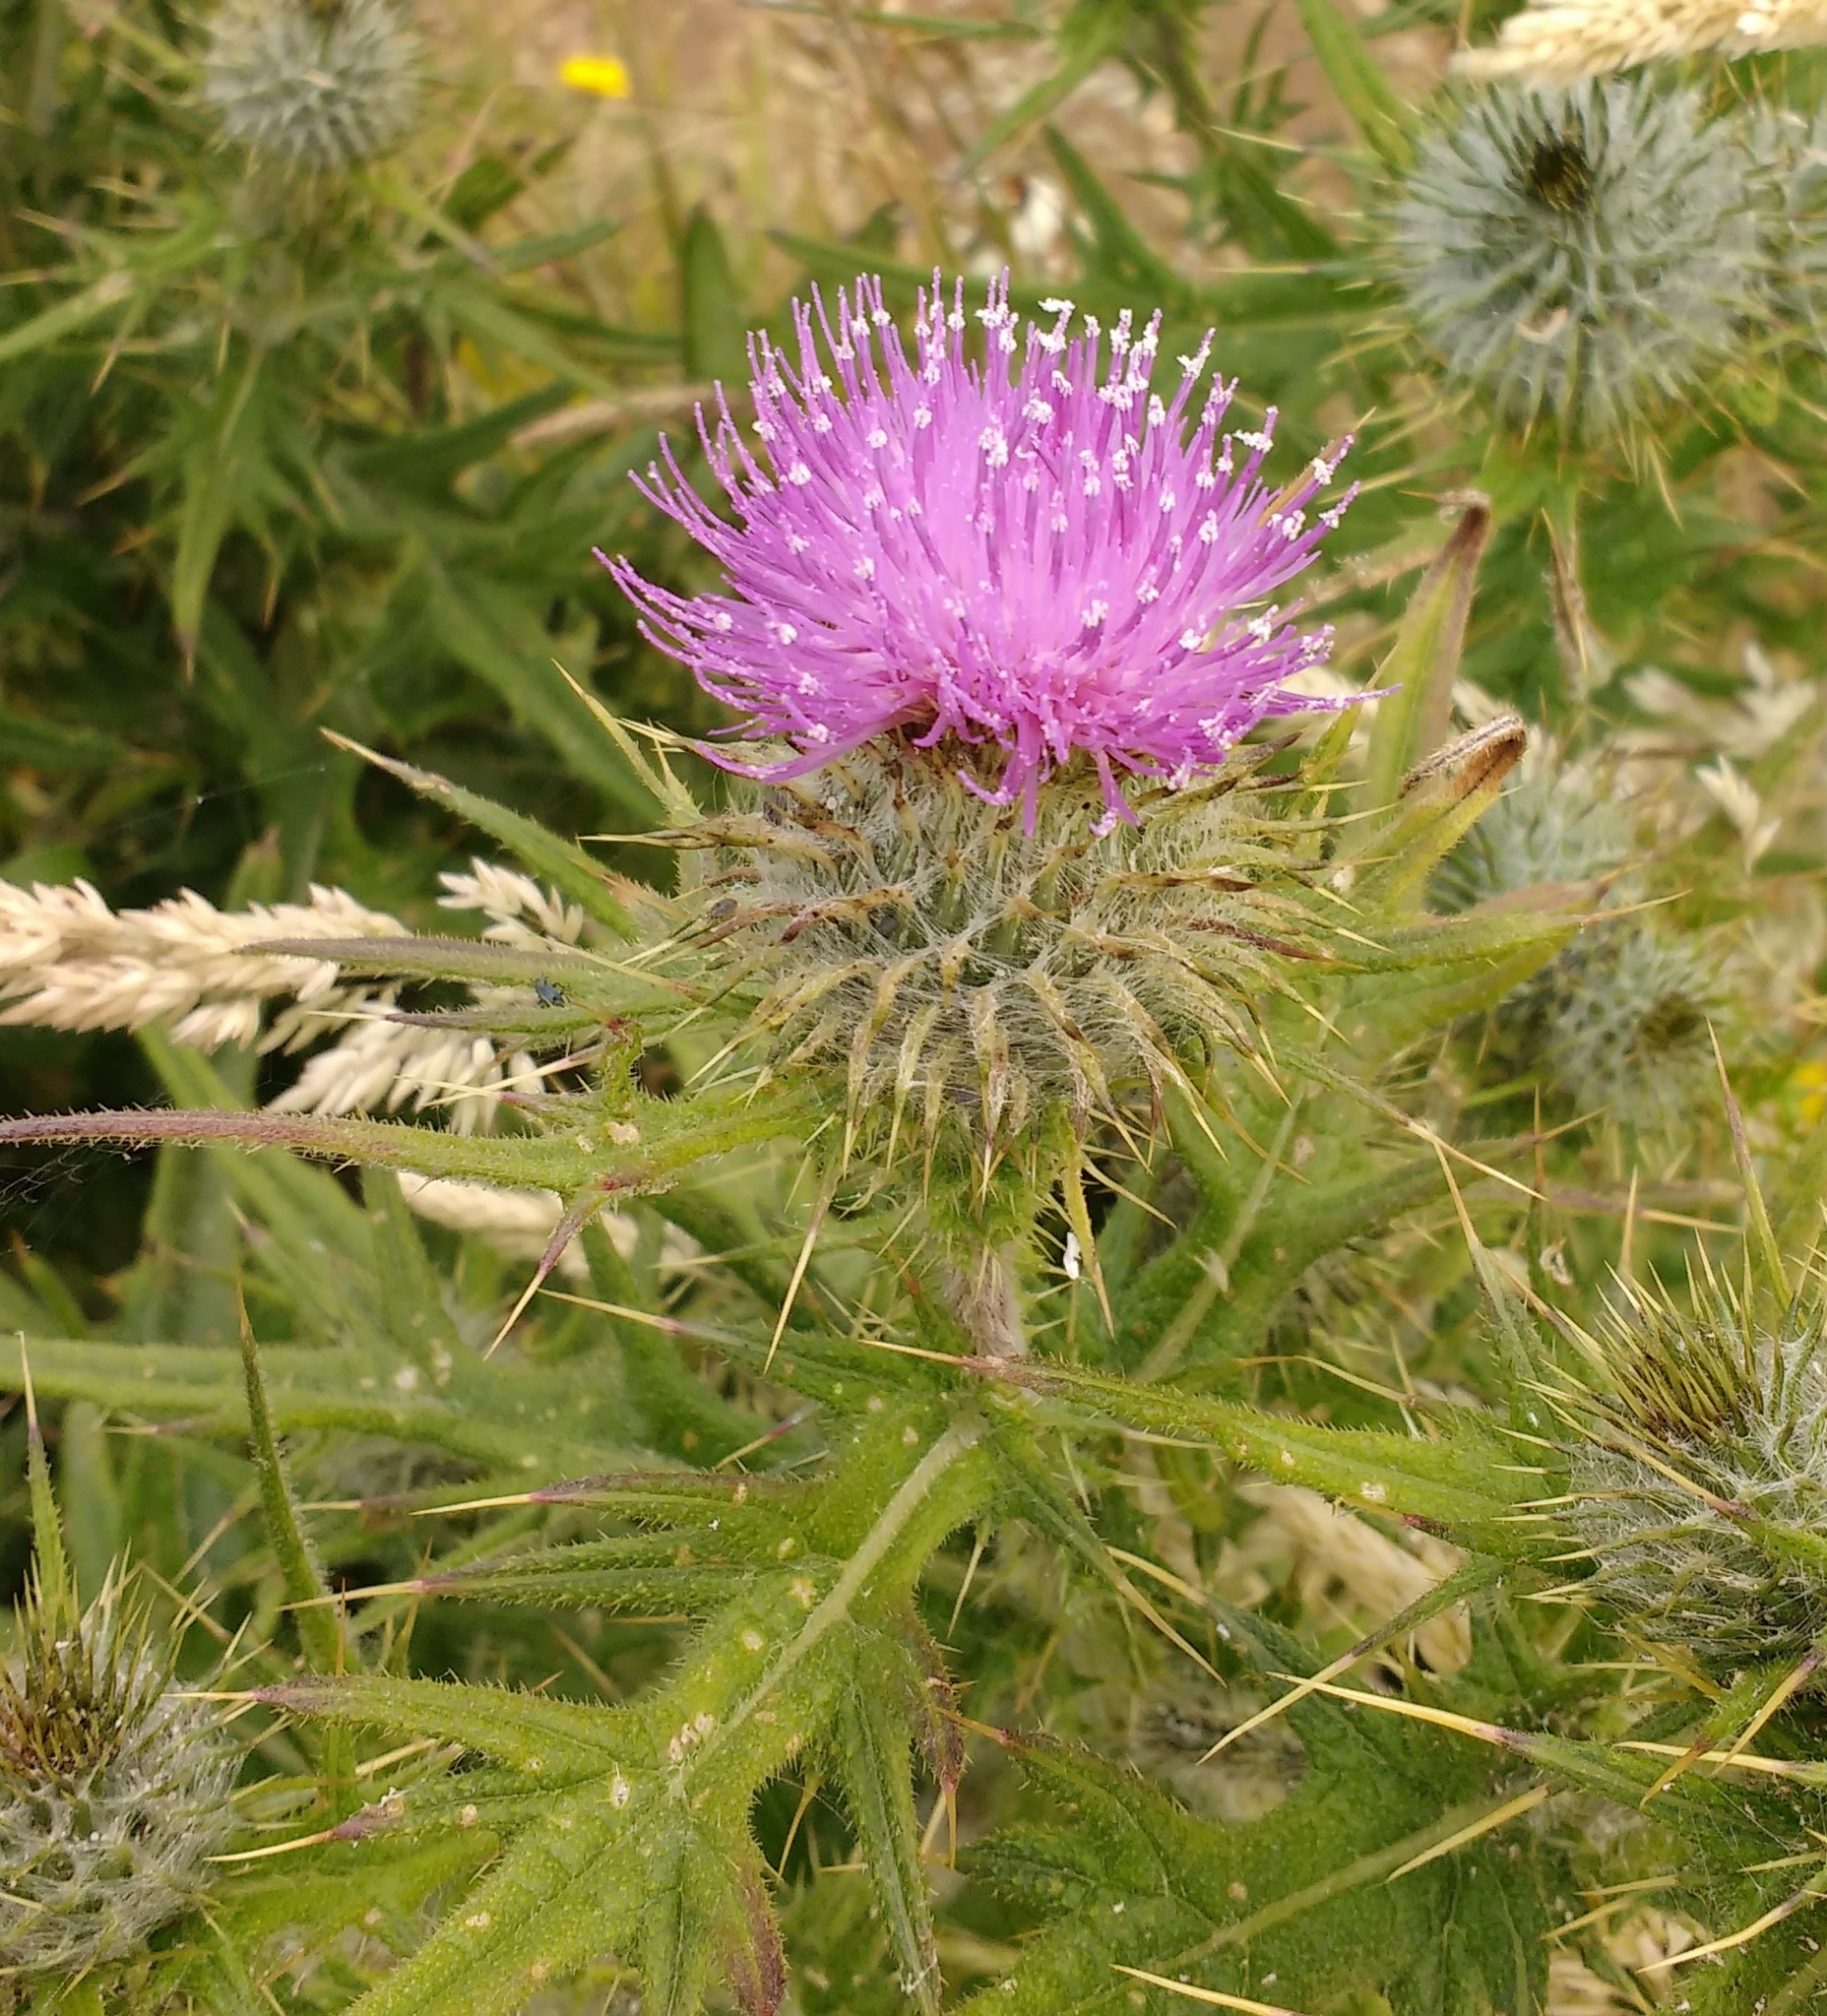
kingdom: Plantae
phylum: Tracheophyta
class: Magnoliopsida
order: Asterales
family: Asteraceae
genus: Cirsium
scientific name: Cirsium vulgare
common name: Bull thistle
